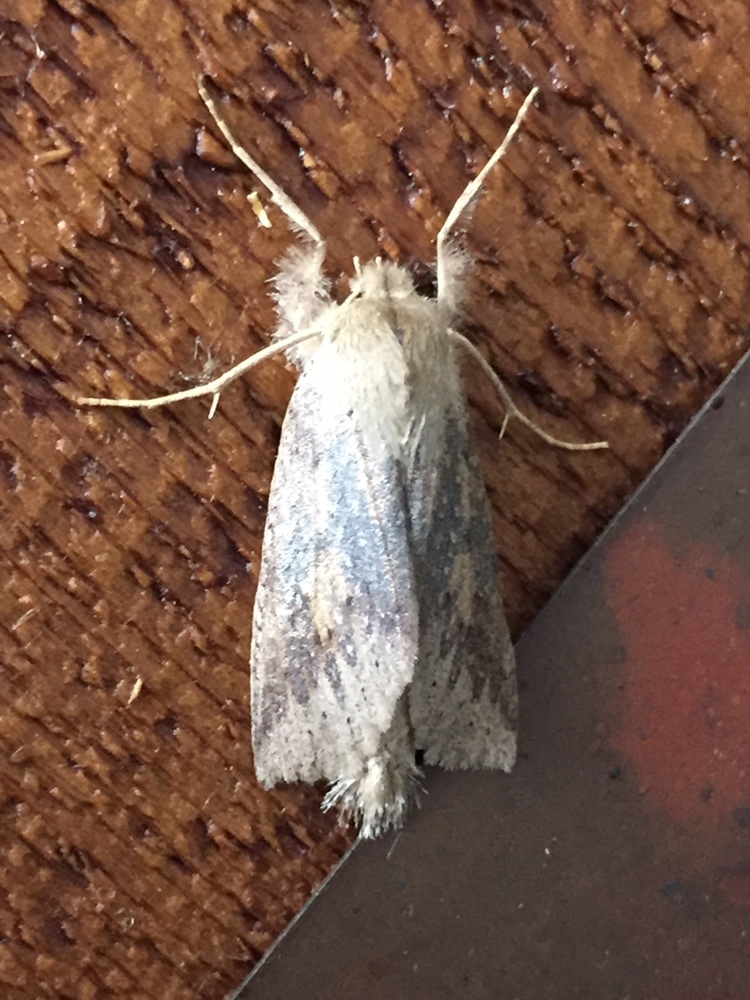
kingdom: Animalia
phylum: Arthropoda
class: Insecta
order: Lepidoptera
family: Geometridae
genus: Declana
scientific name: Declana leptomera
